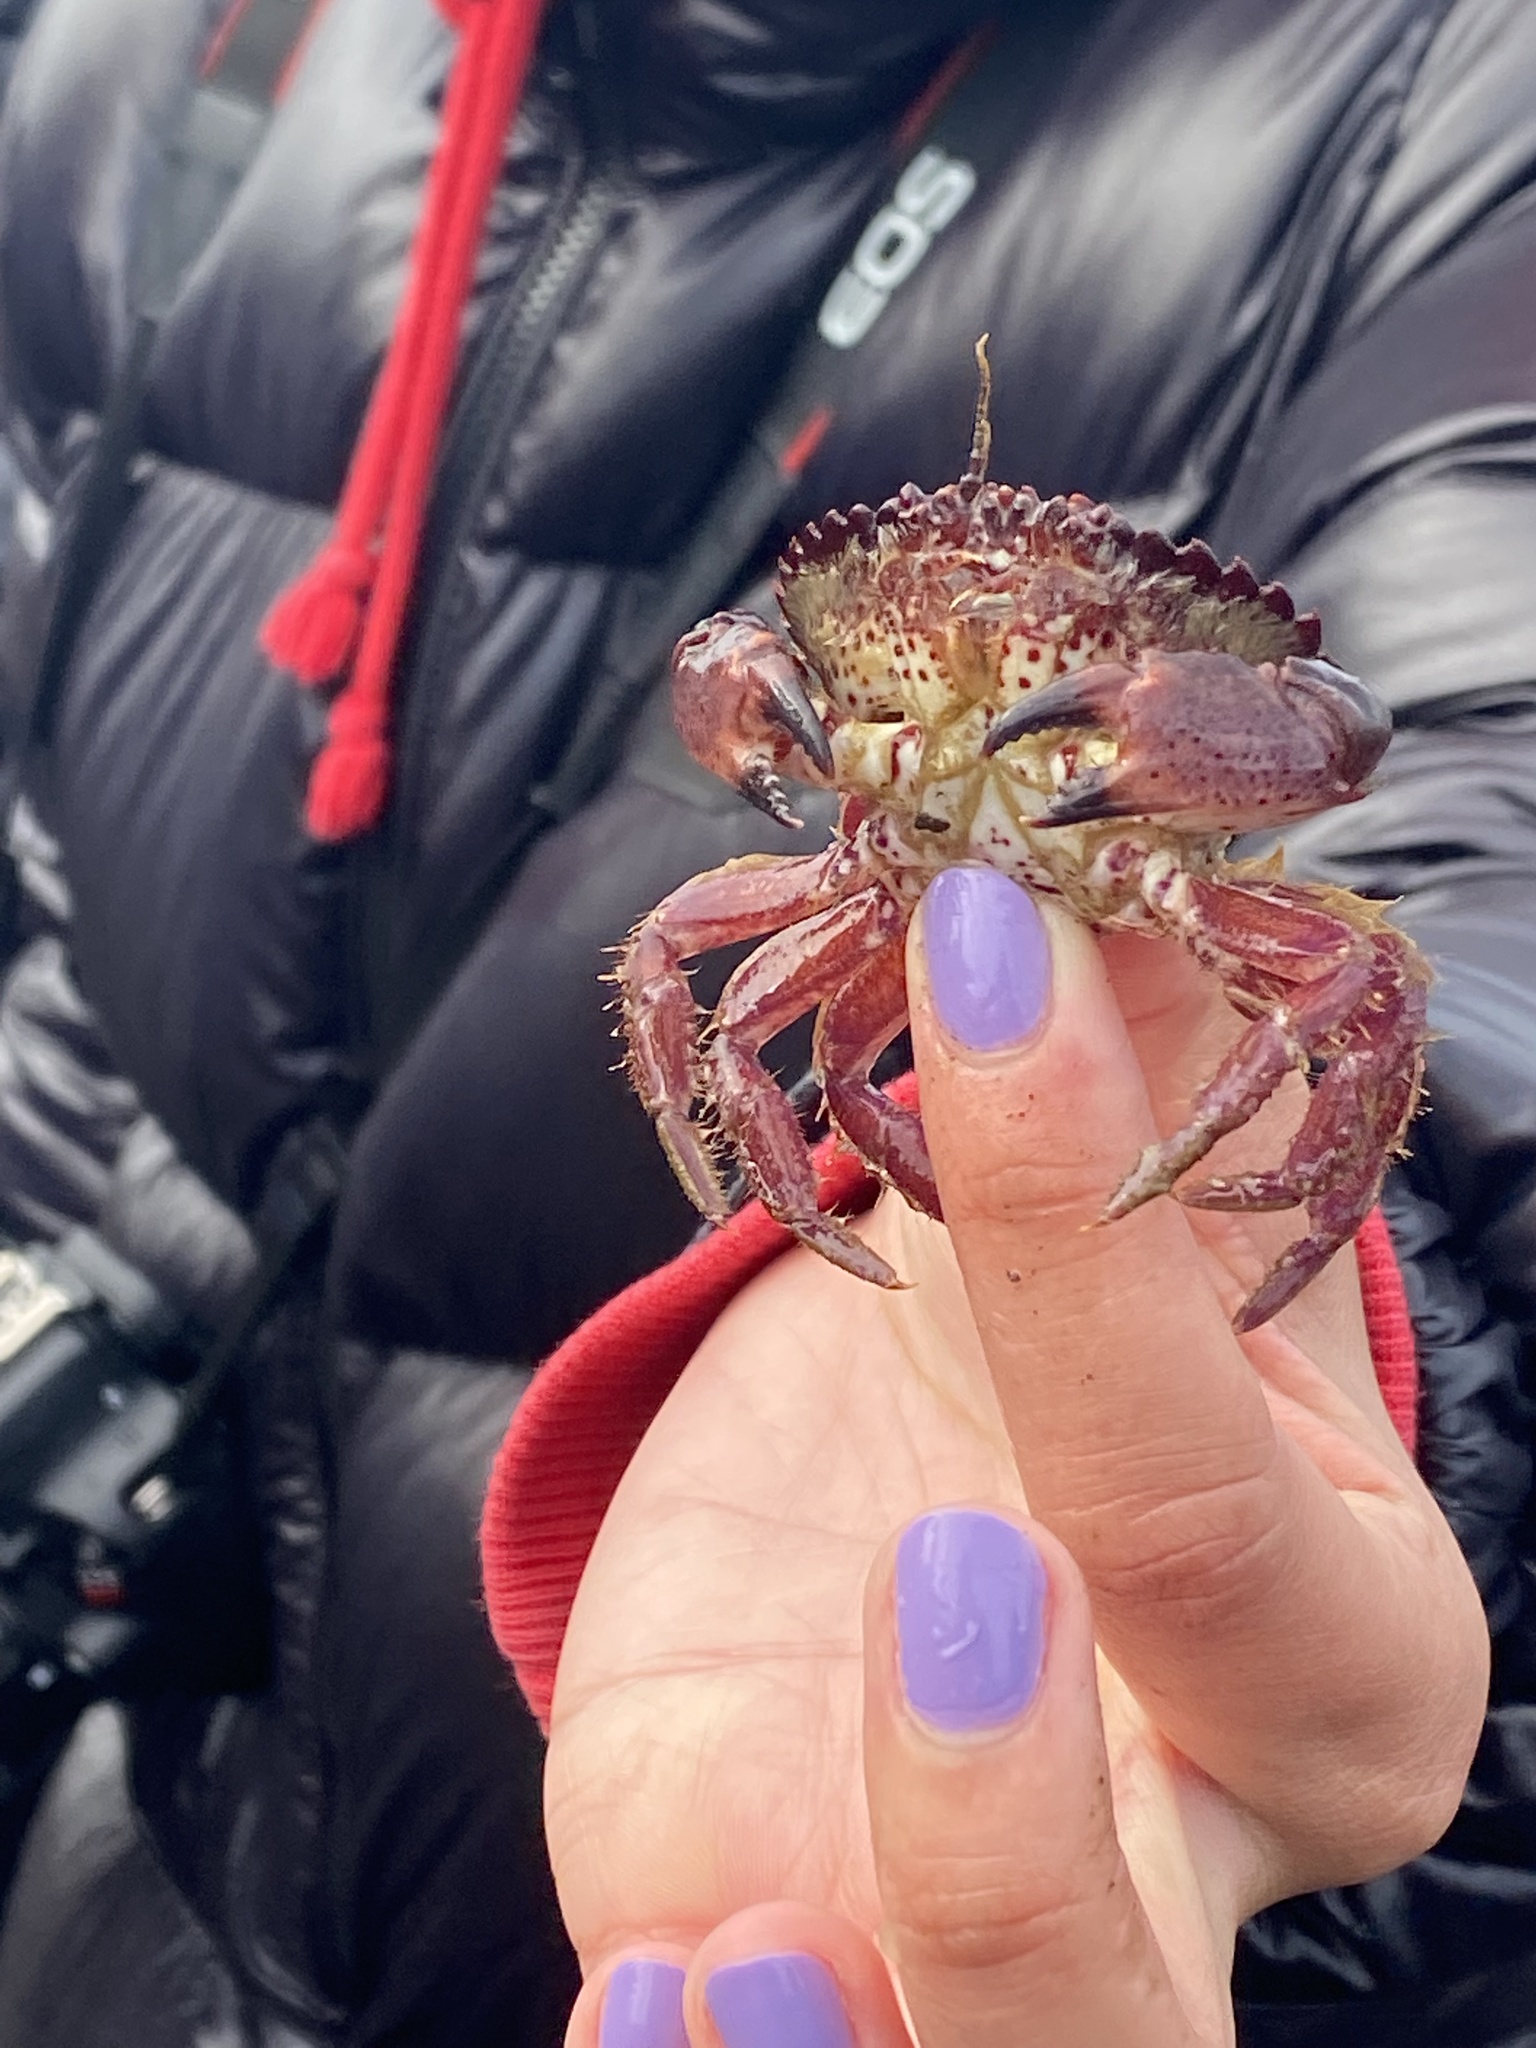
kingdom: Animalia
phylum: Arthropoda
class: Malacostraca
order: Decapoda
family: Cancridae
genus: Romaleon
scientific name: Romaleon antennarium
